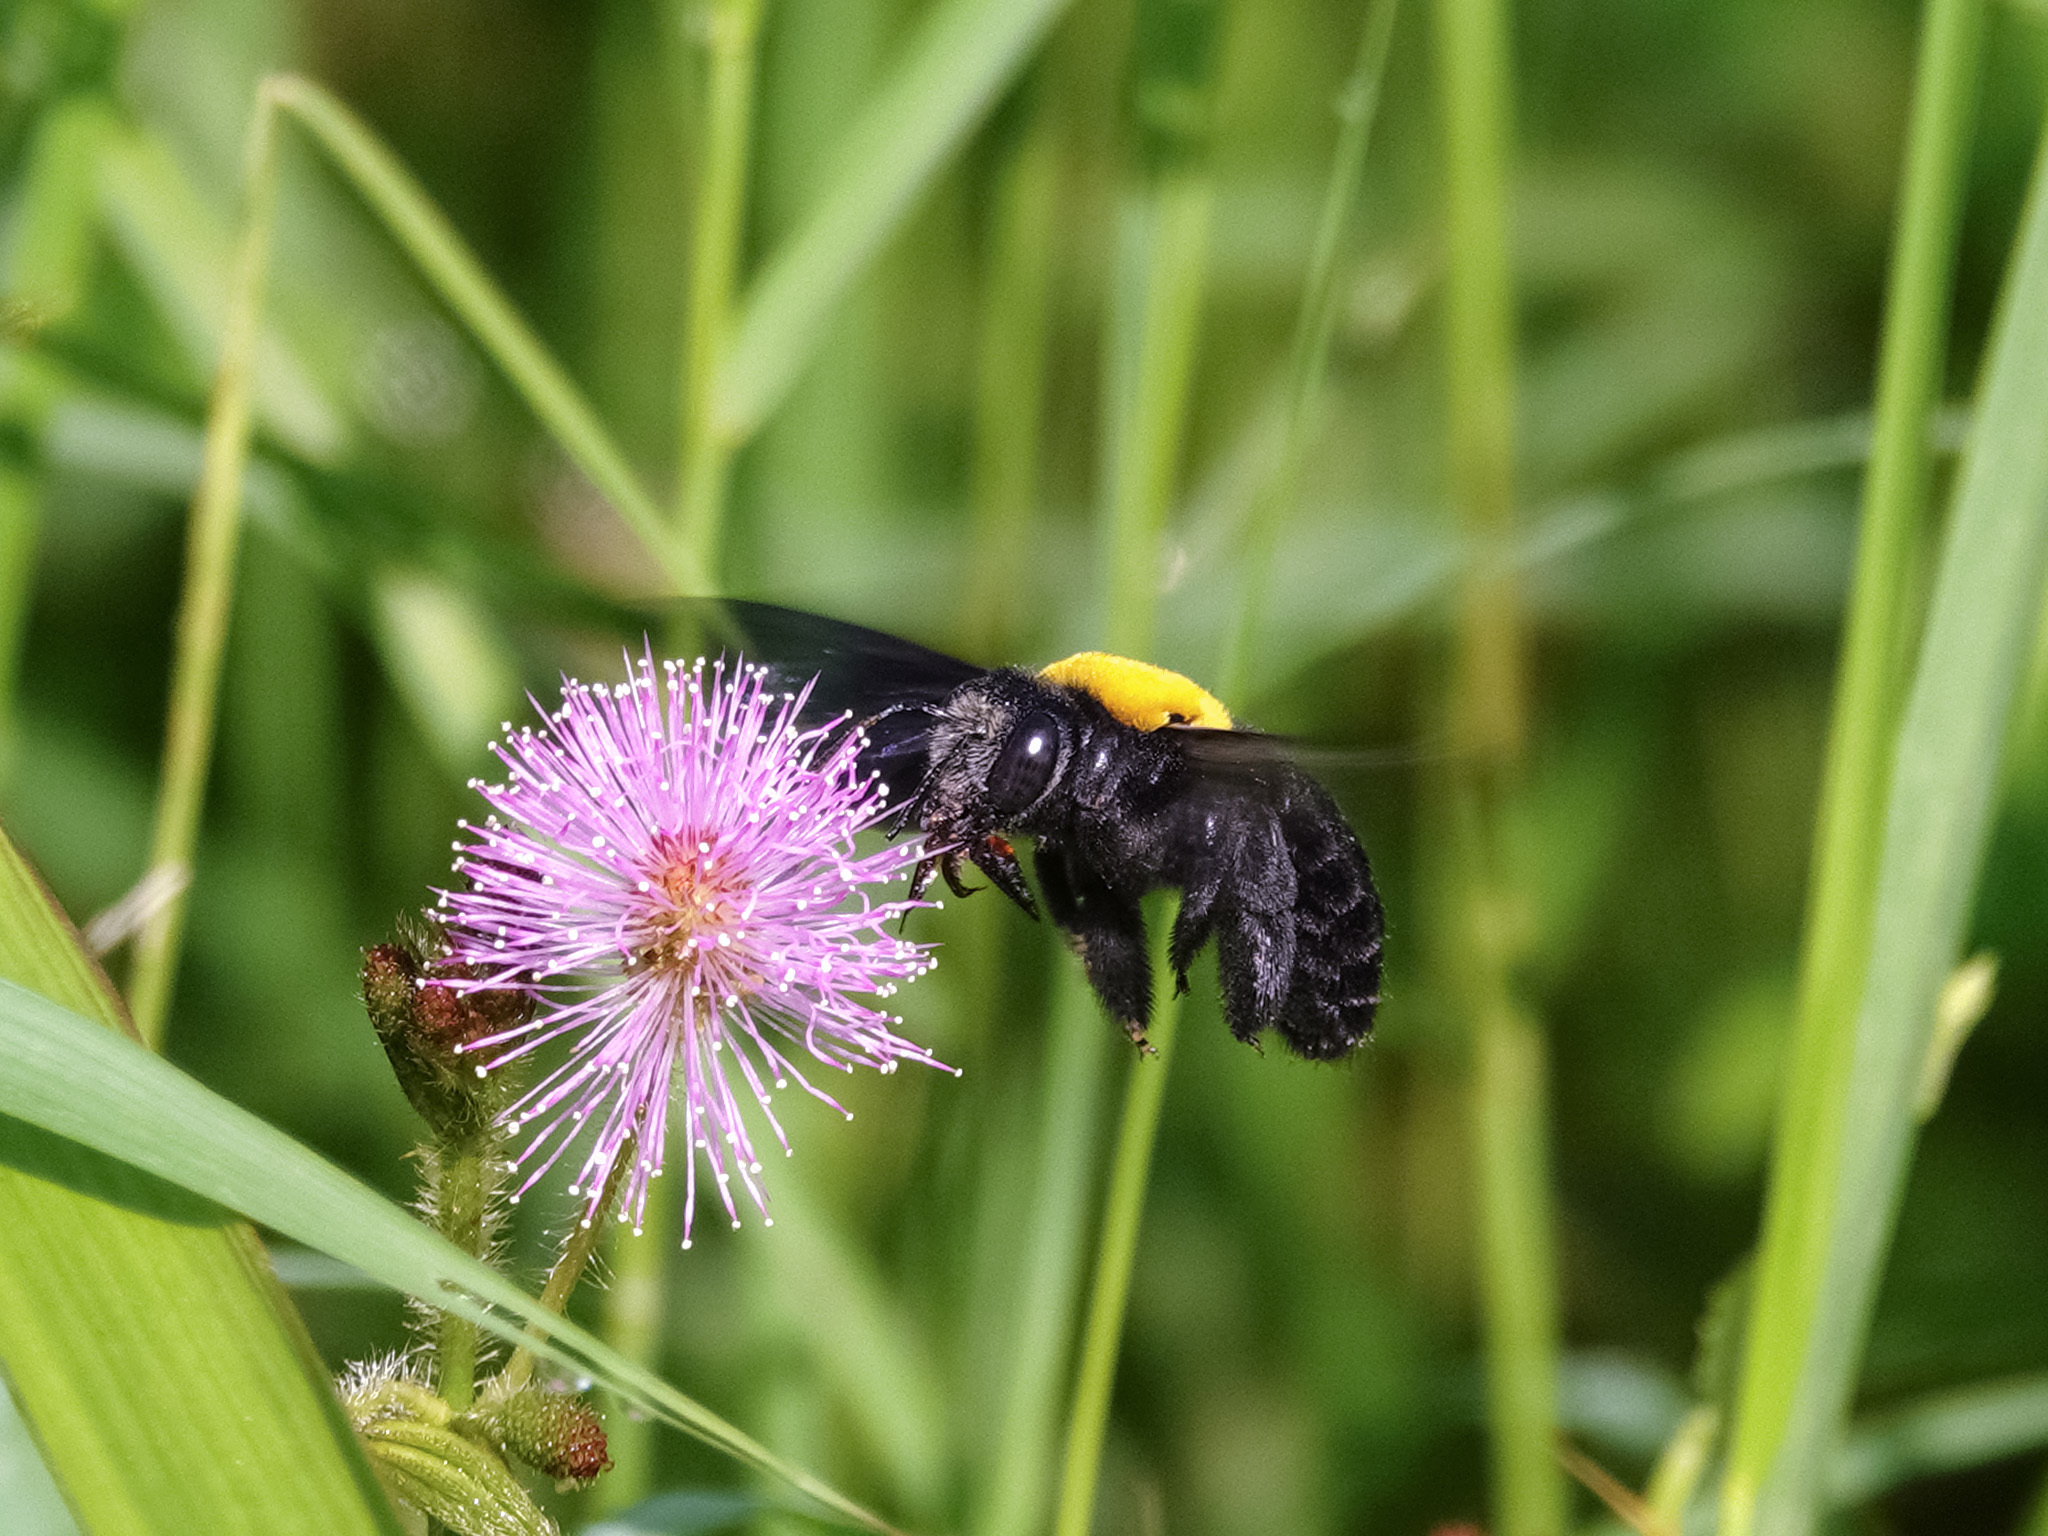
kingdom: Animalia
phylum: Arthropoda
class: Insecta
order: Hymenoptera
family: Apidae
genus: Xylocopa
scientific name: Xylocopa aestuans
